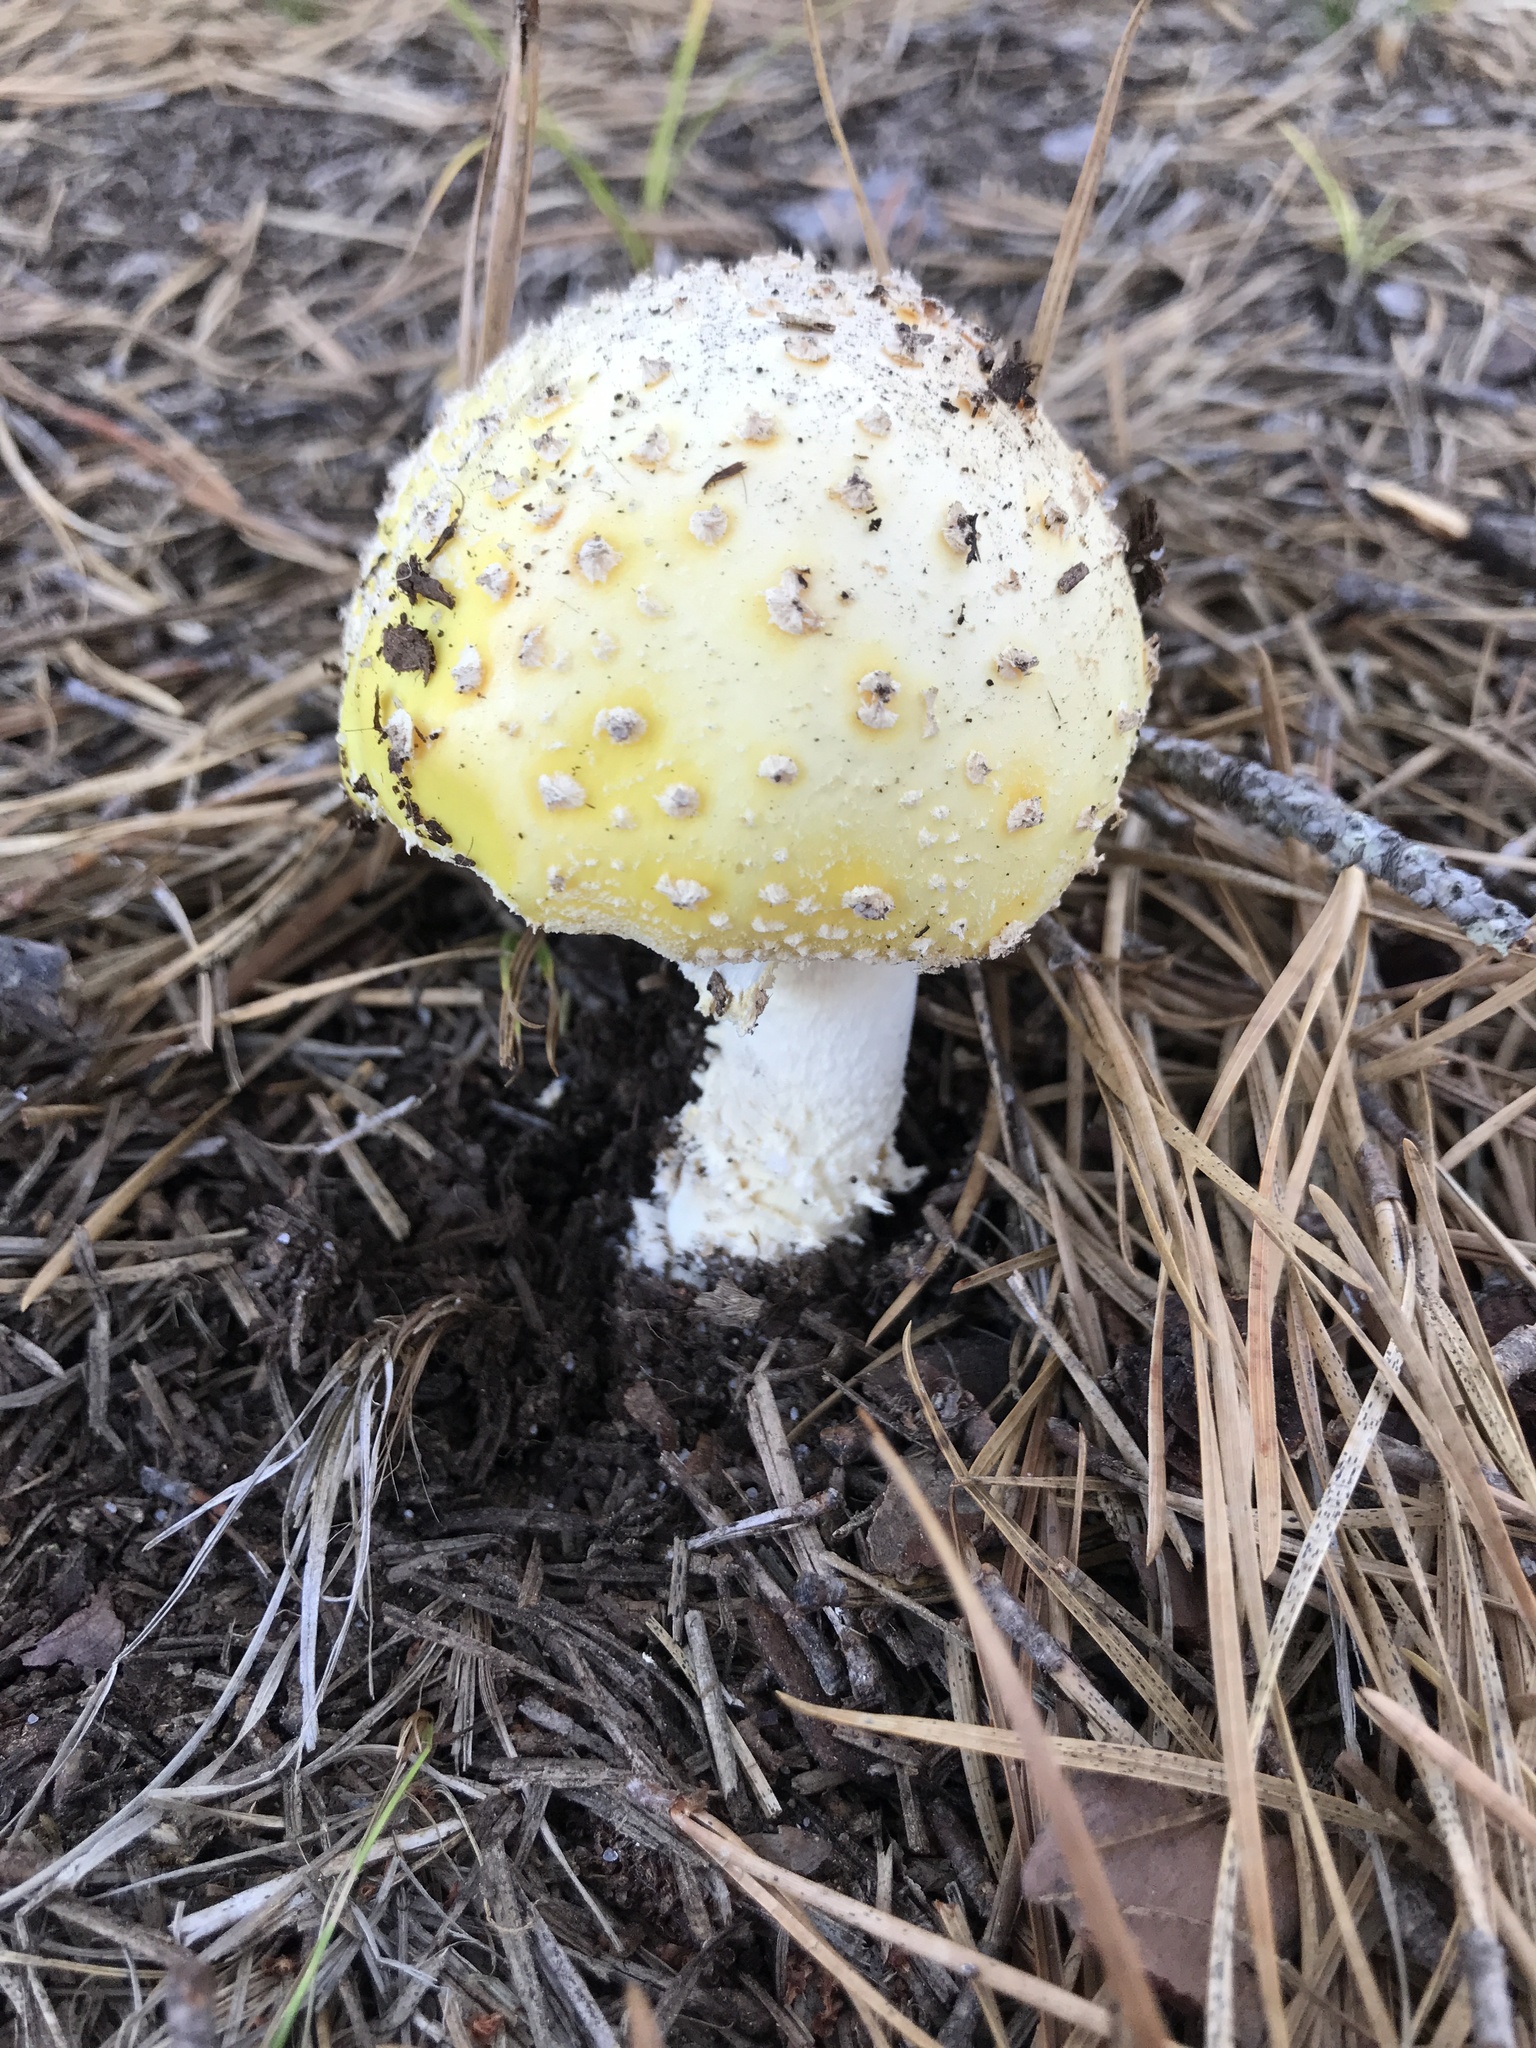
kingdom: Fungi
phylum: Basidiomycota
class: Agaricomycetes
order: Agaricales
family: Amanitaceae
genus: Amanita
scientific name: Amanita muscaria
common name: Fly agaric
